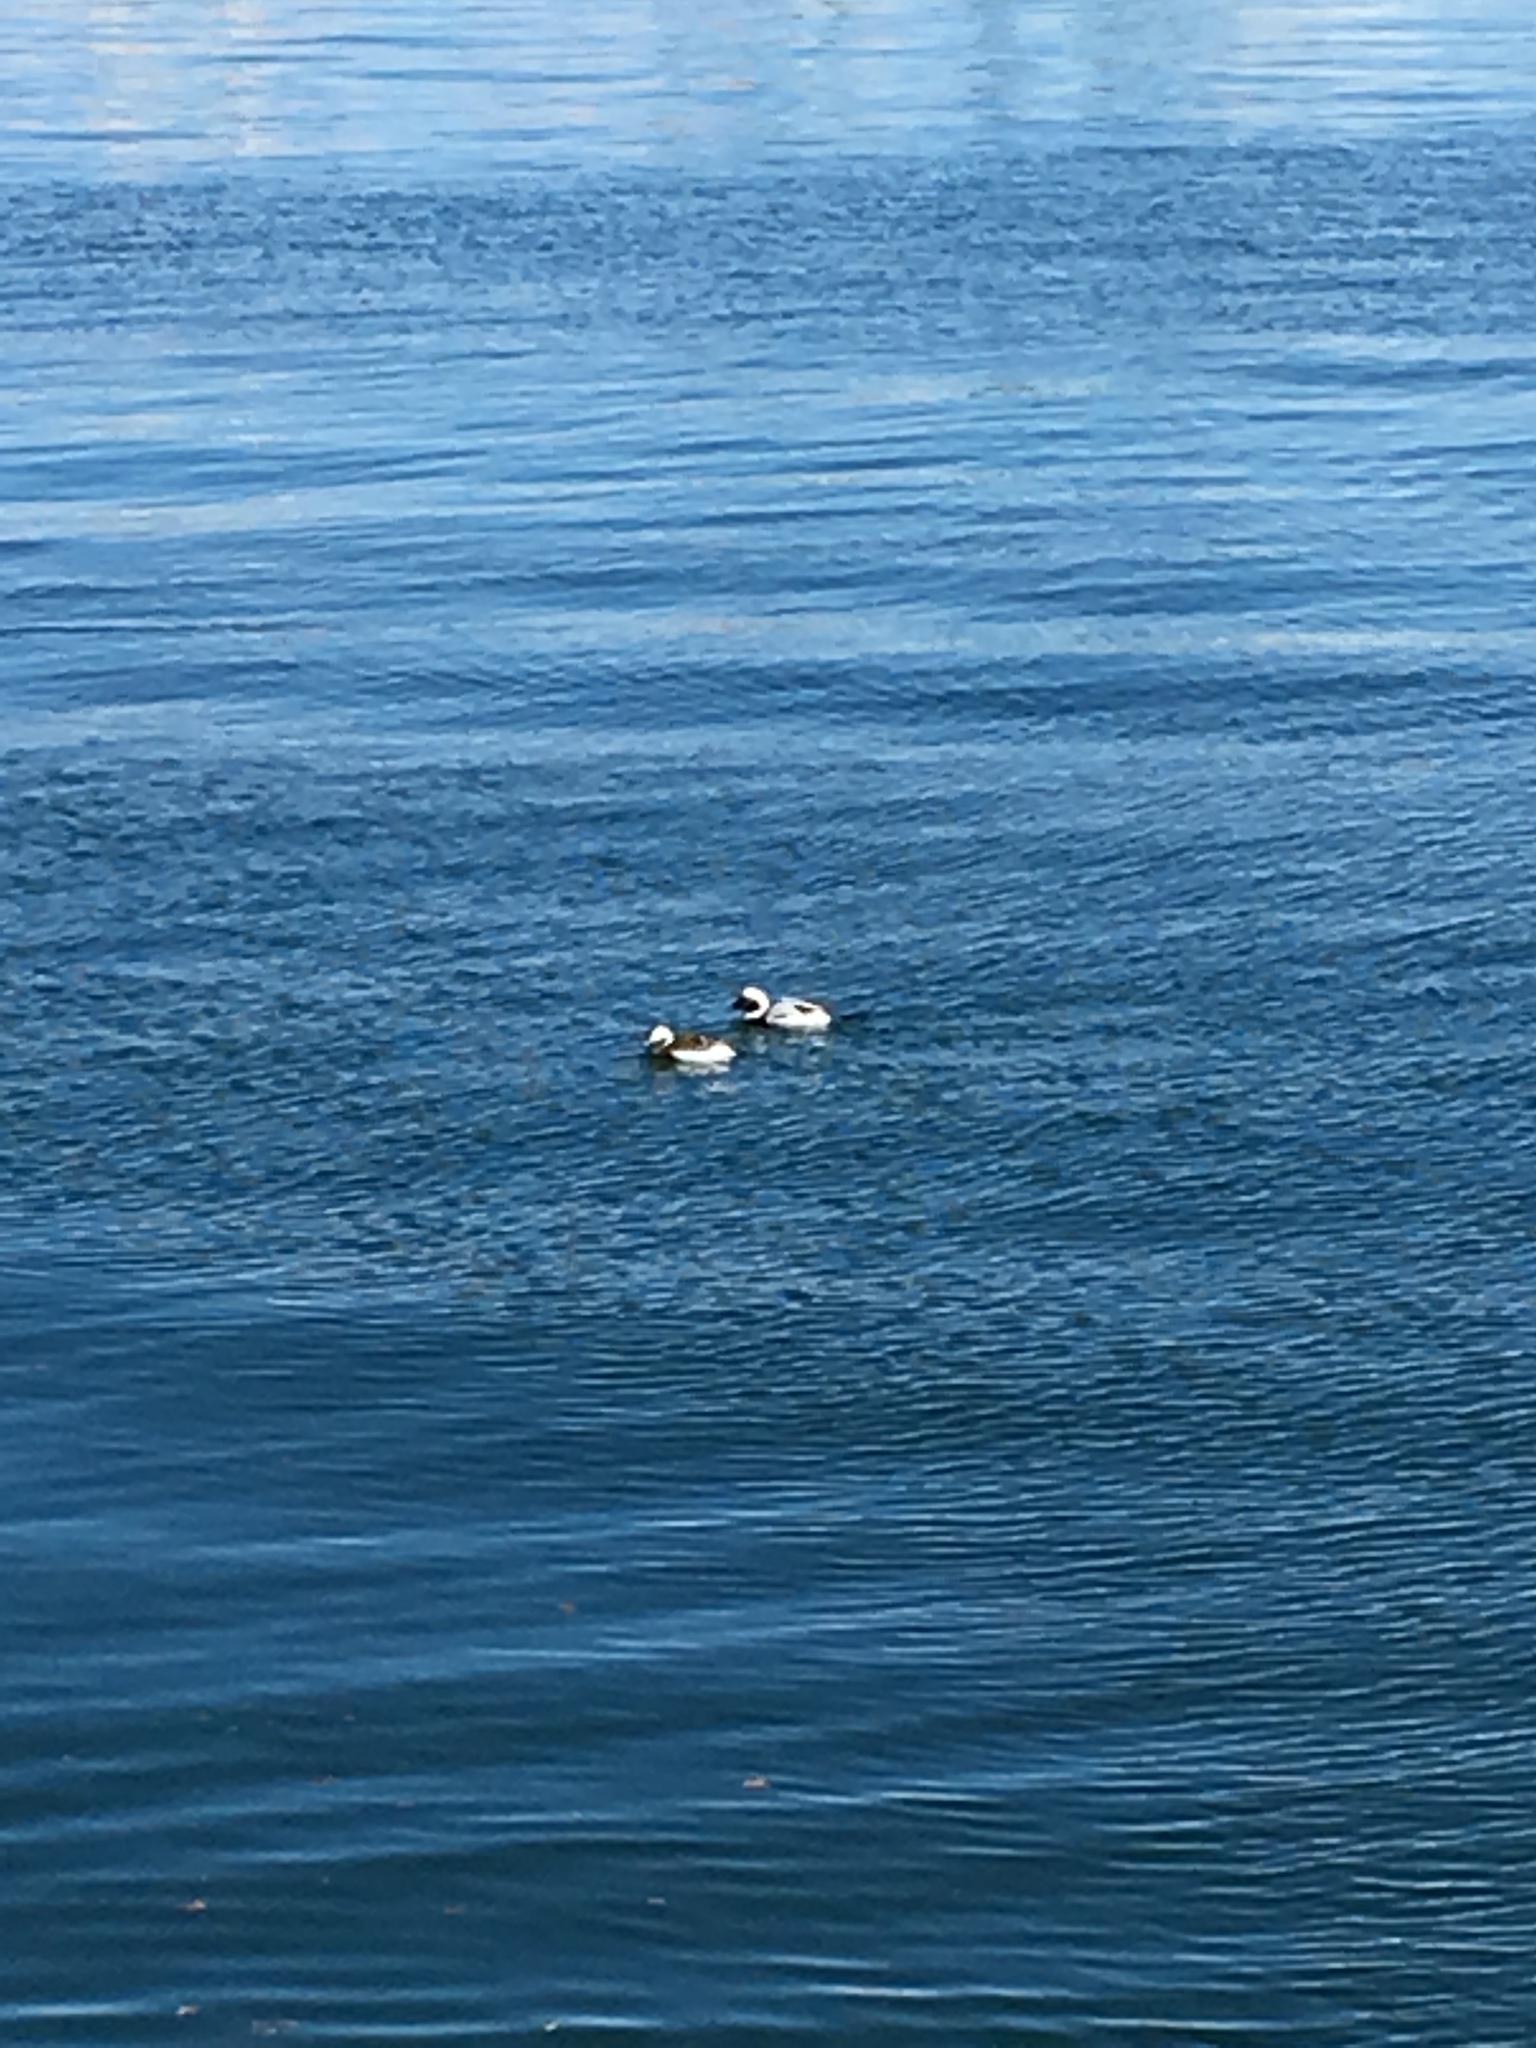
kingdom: Animalia
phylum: Chordata
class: Aves
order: Anseriformes
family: Anatidae
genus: Clangula
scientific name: Clangula hyemalis
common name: Long-tailed duck
